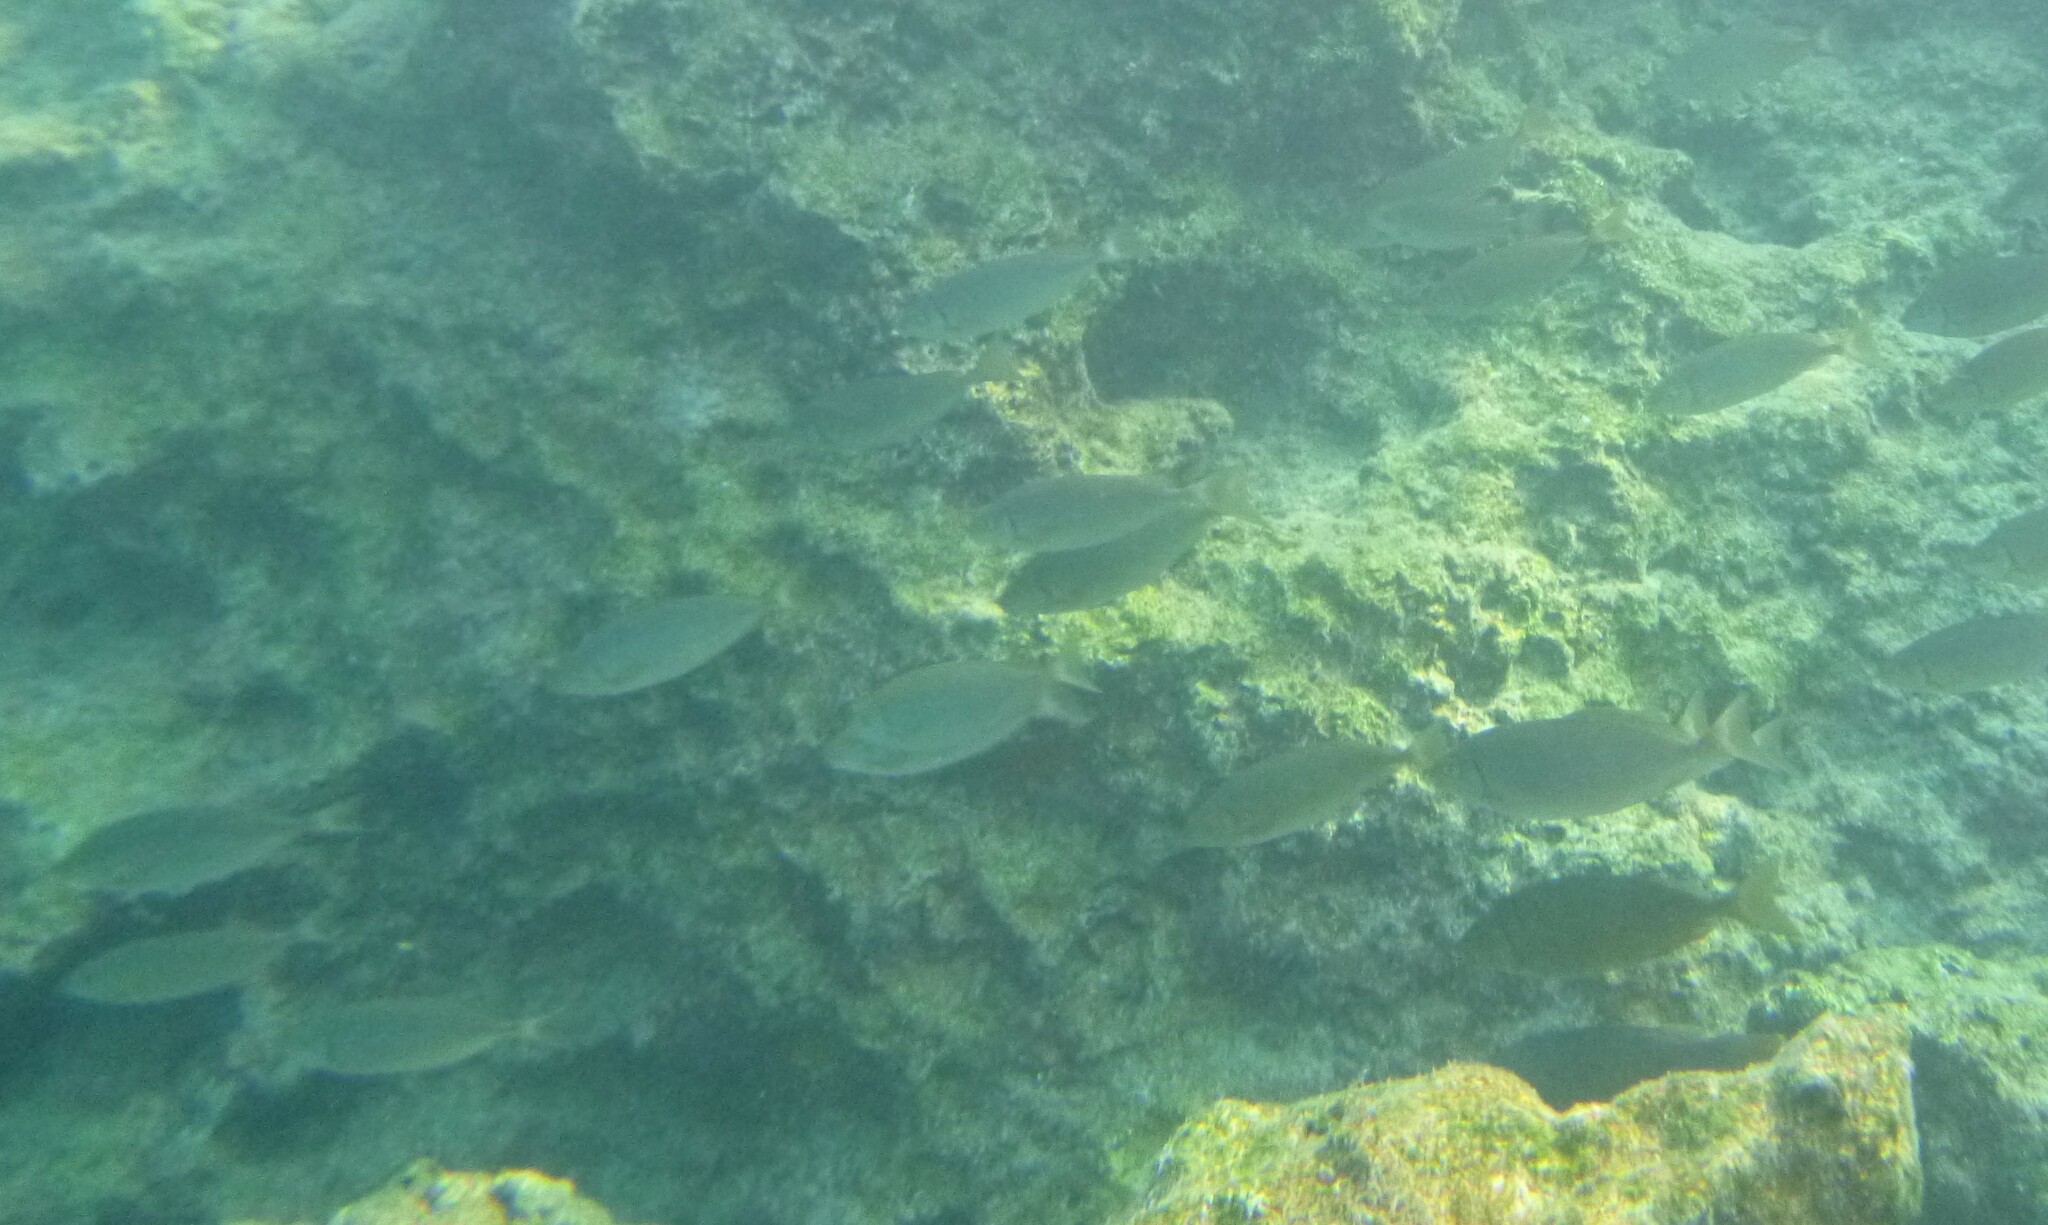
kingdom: Animalia
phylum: Chordata
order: Perciformes
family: Siganidae
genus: Siganus
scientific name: Siganus rivulatus
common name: Marbled spinefoot
